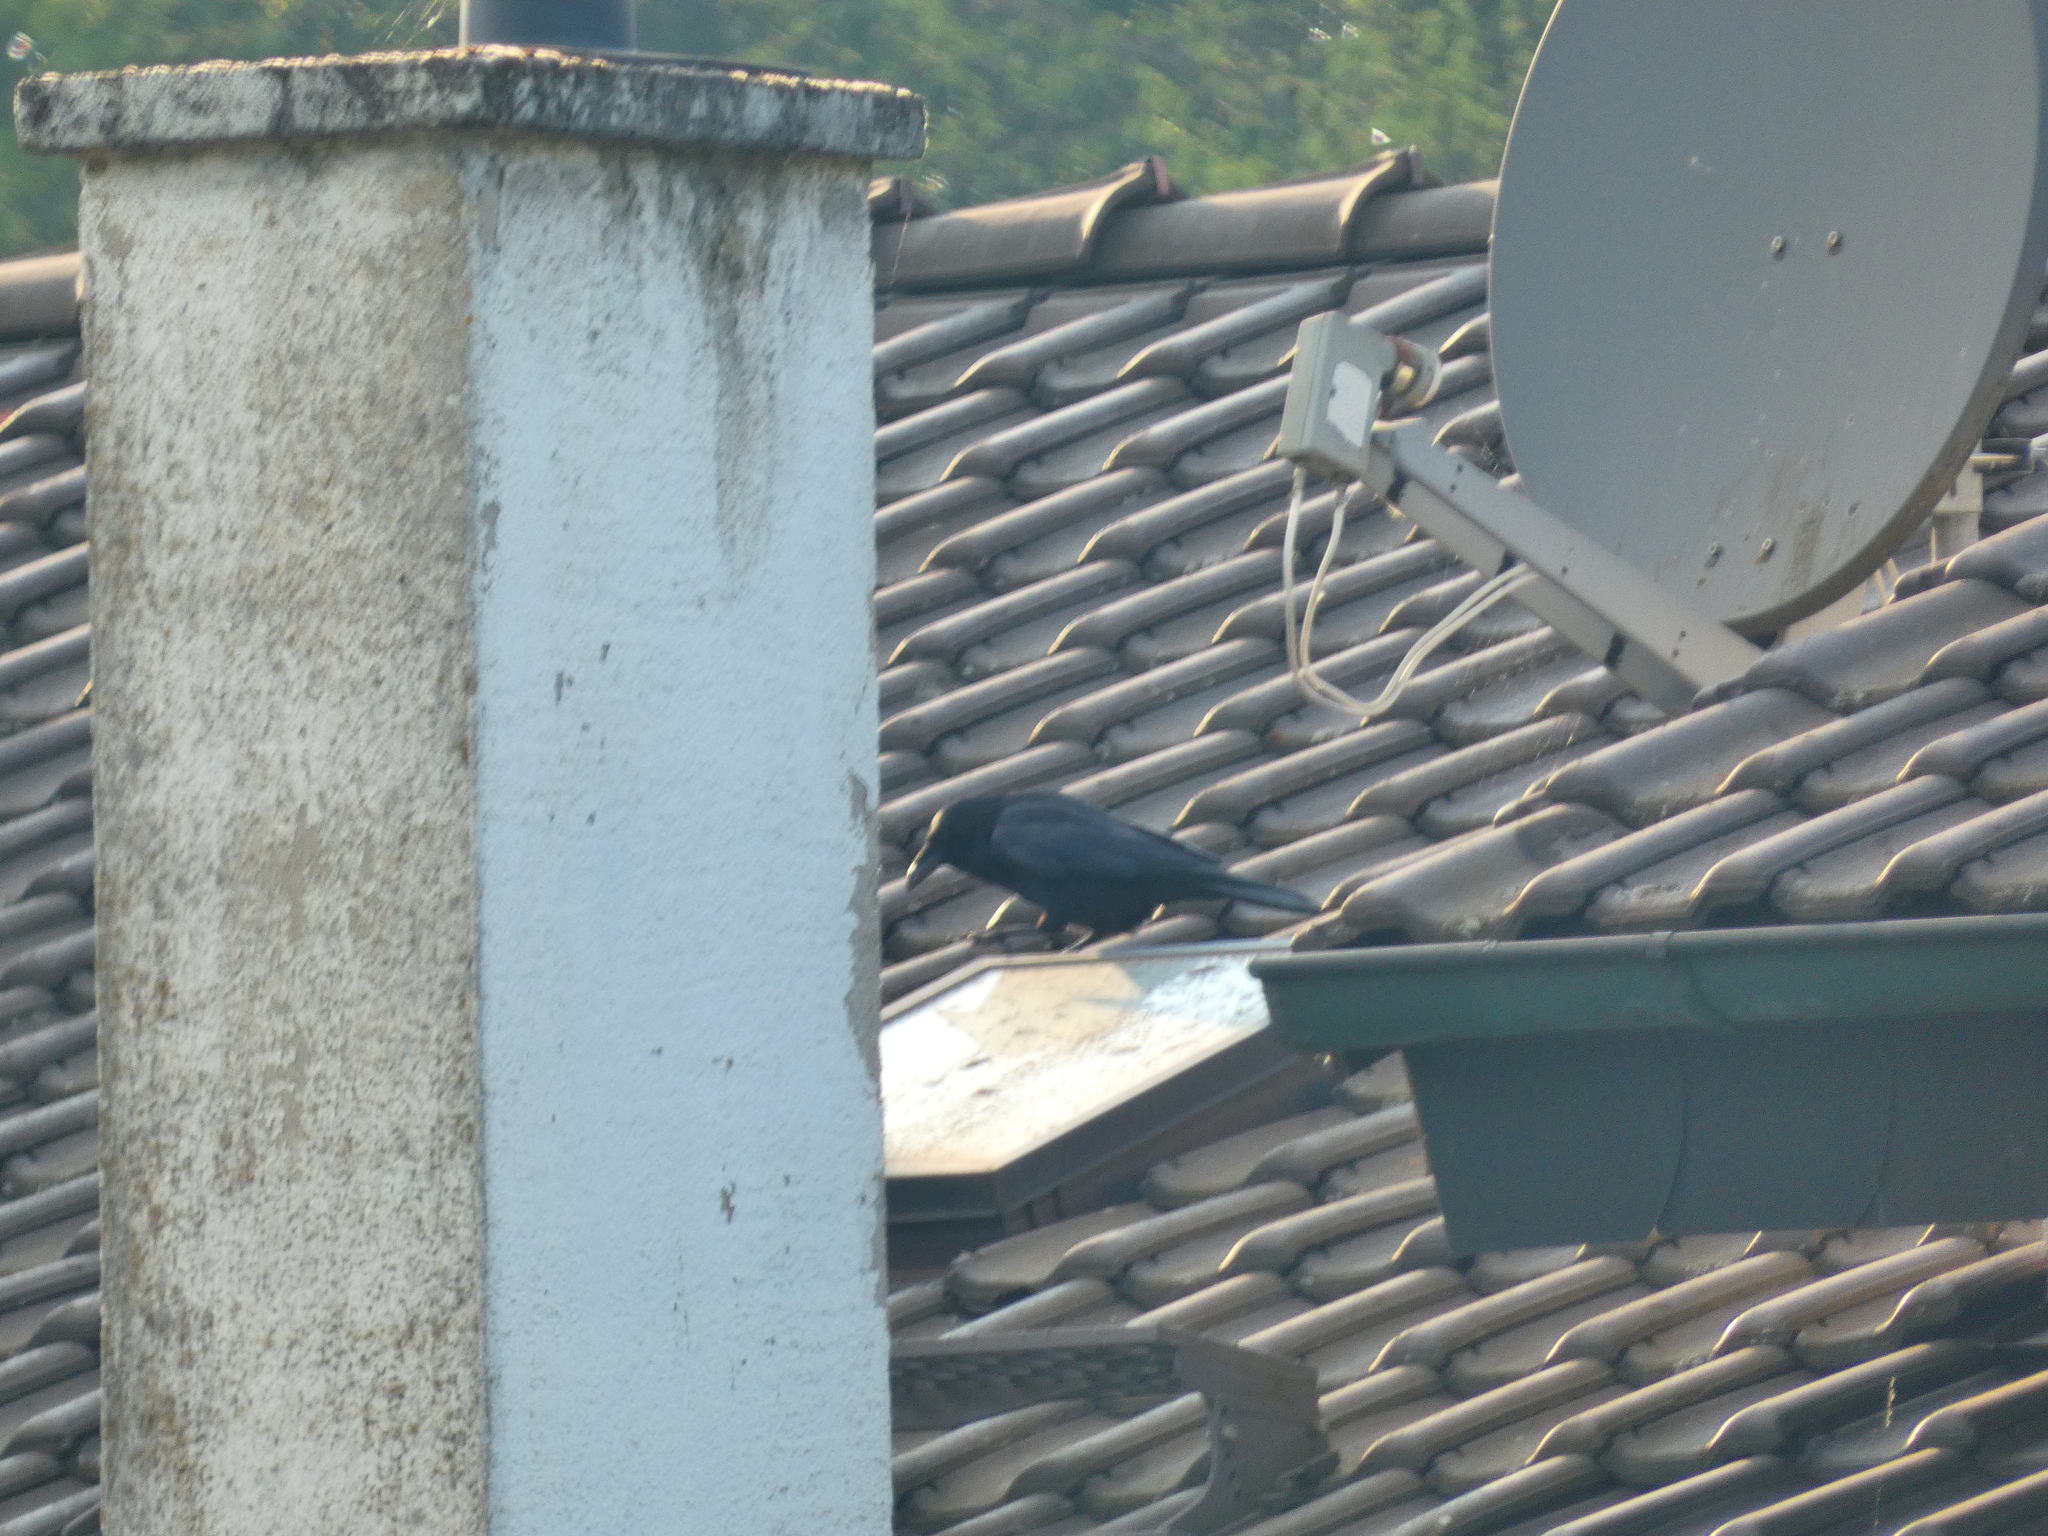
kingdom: Animalia
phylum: Chordata
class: Aves
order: Passeriformes
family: Corvidae
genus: Corvus
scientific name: Corvus corone
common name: Carrion crow
